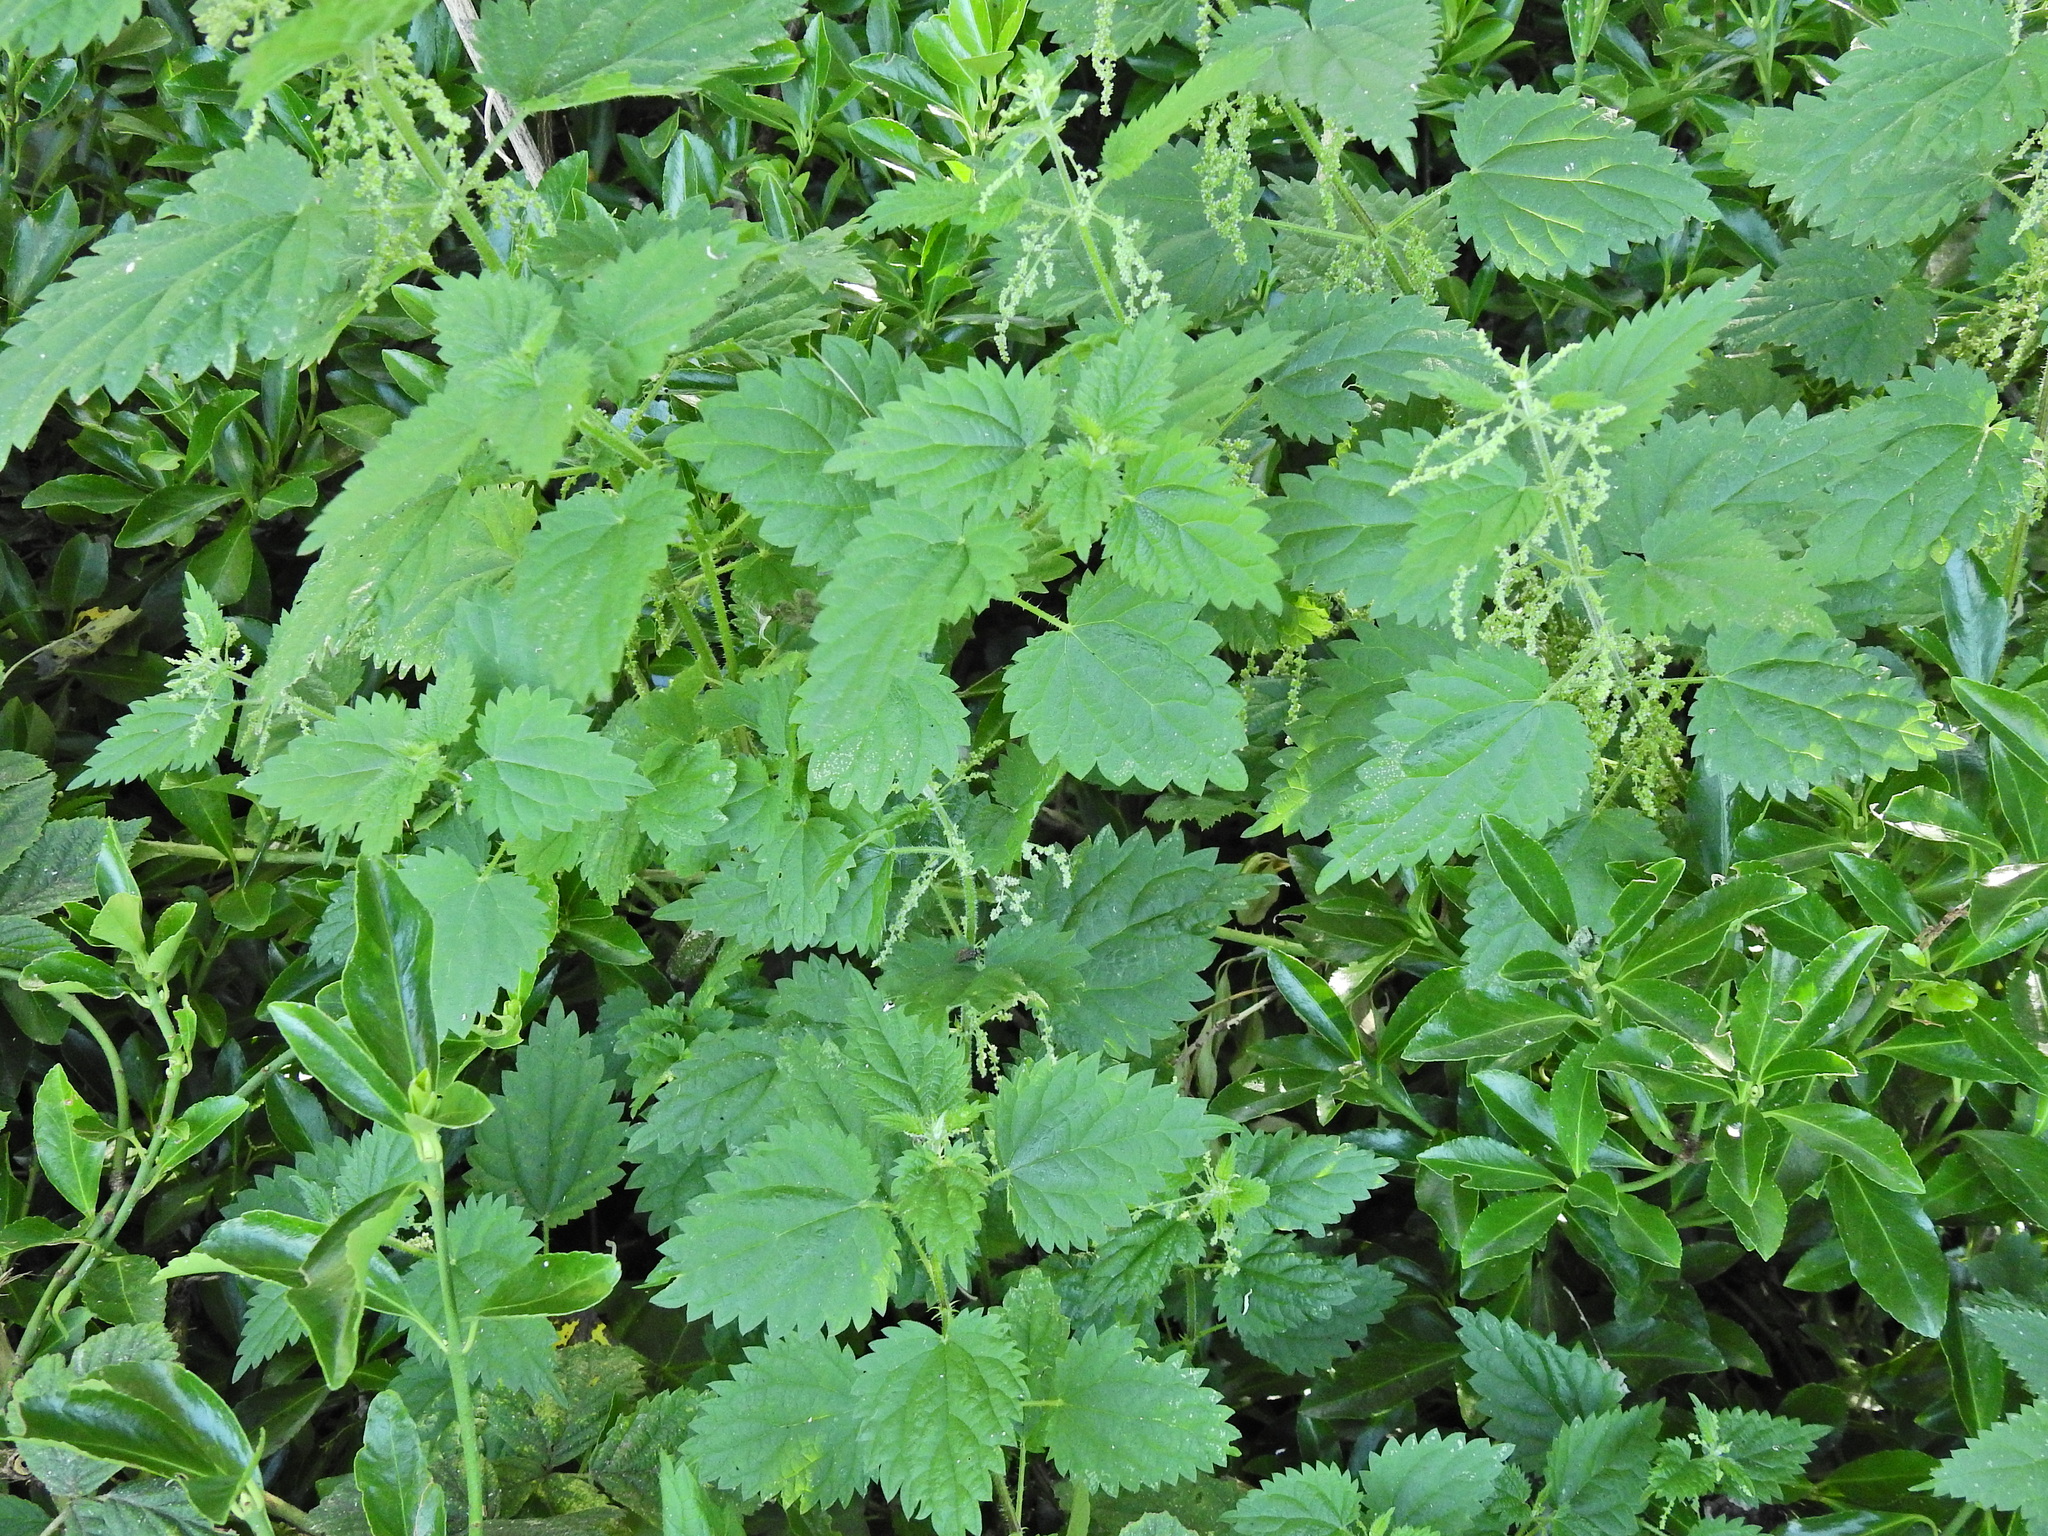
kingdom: Plantae
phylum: Tracheophyta
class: Magnoliopsida
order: Rosales
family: Urticaceae
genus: Urtica
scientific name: Urtica dioica
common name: Common nettle
